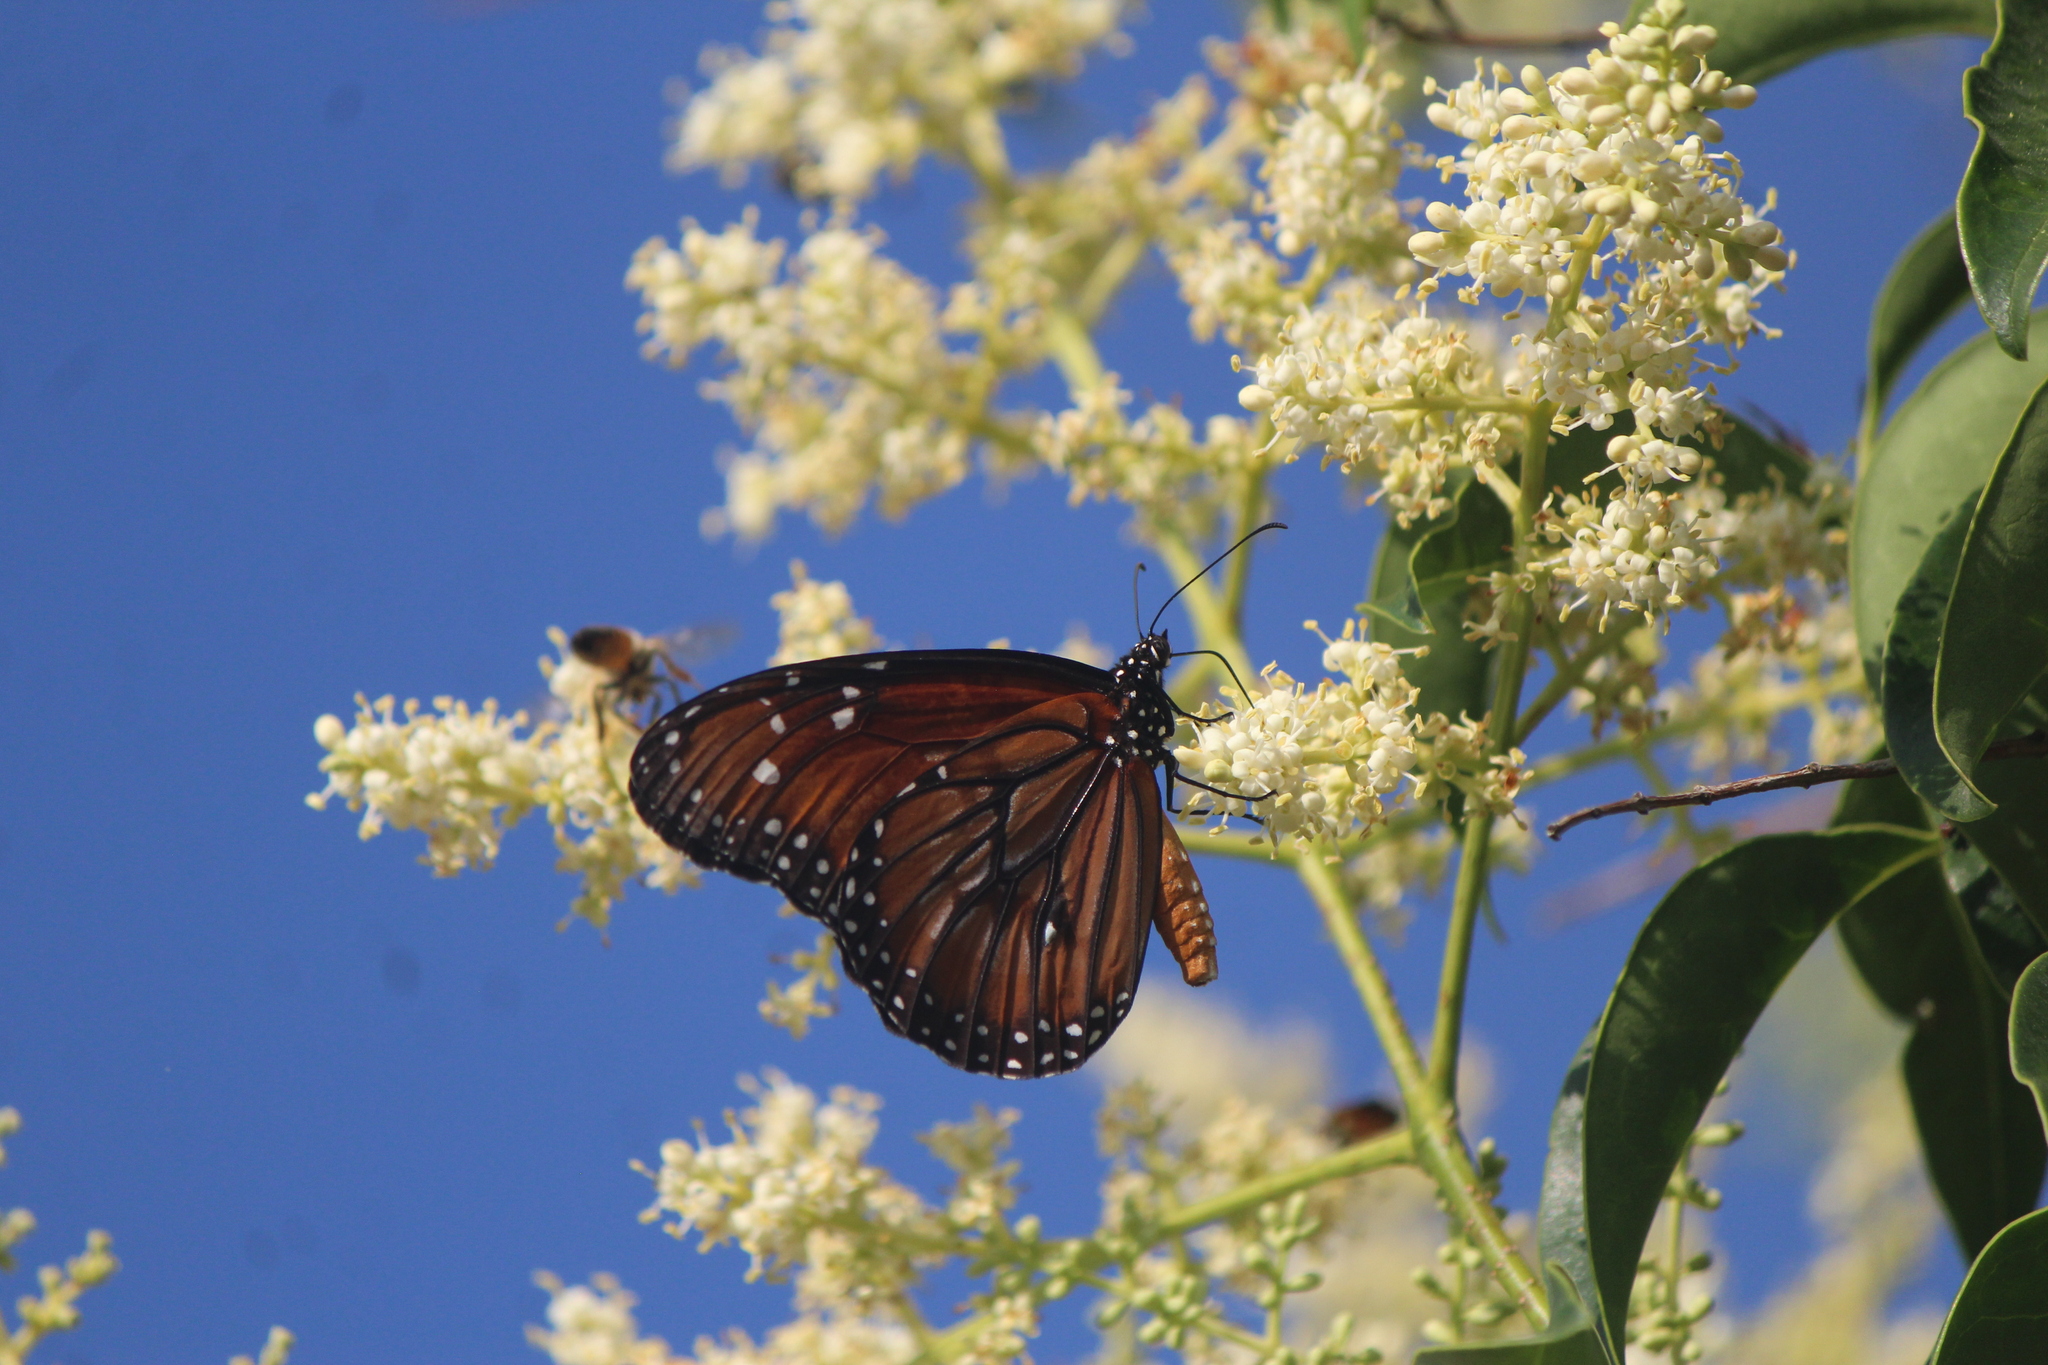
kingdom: Animalia
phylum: Arthropoda
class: Insecta
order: Lepidoptera
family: Nymphalidae
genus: Danaus
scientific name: Danaus eresimus
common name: Soldier
